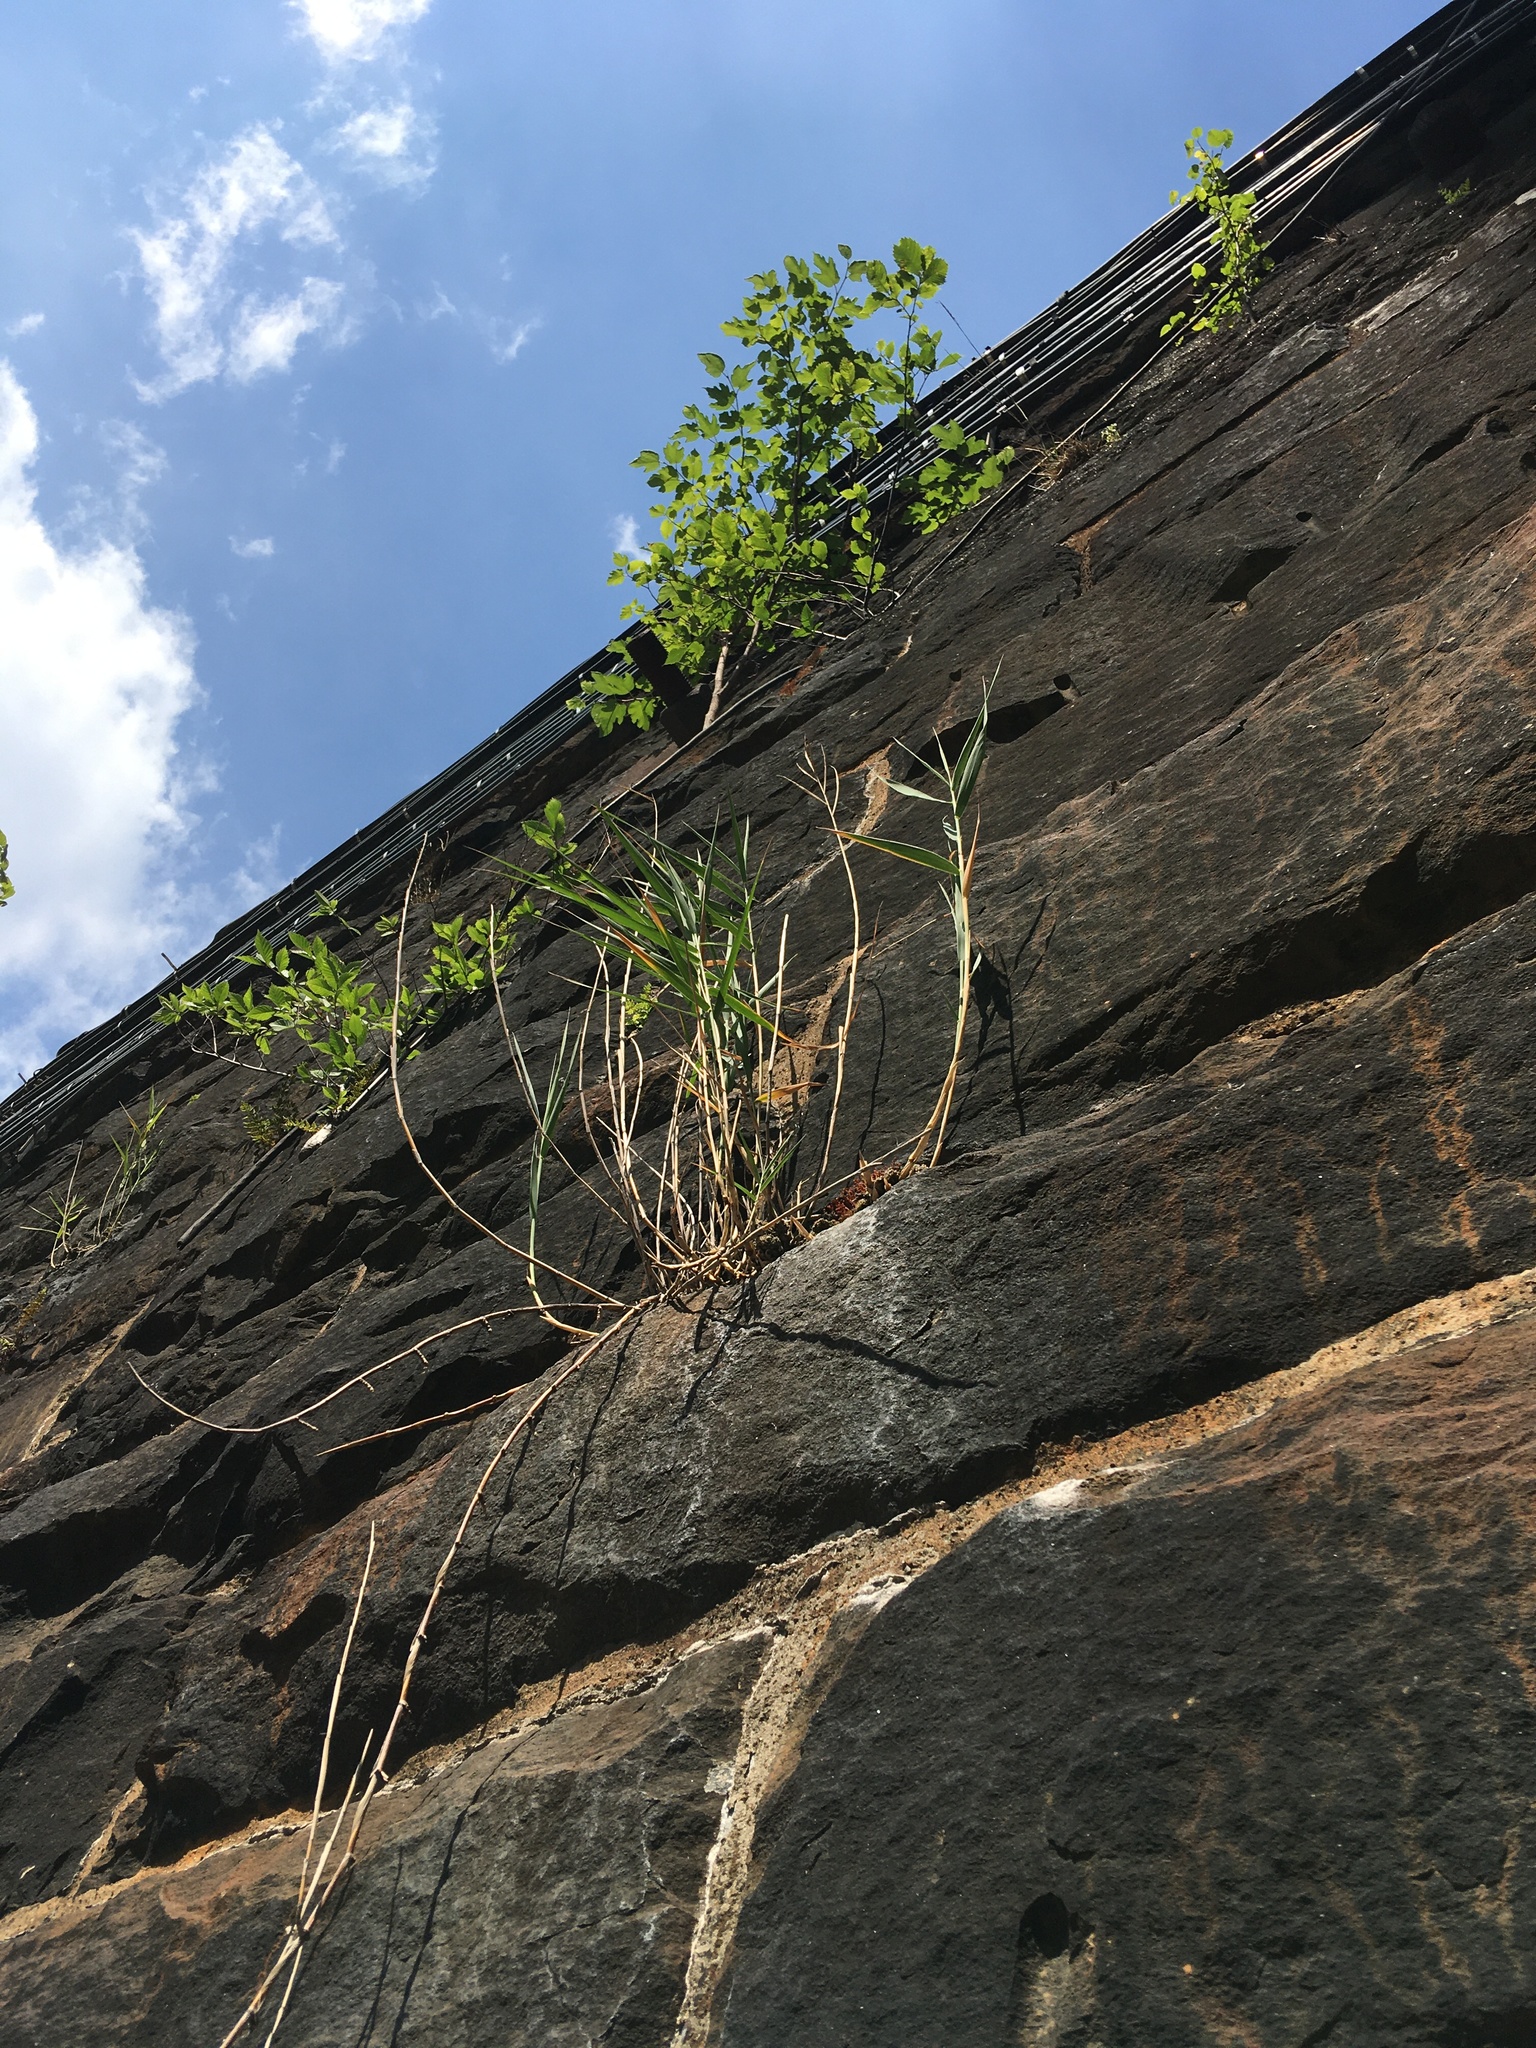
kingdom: Plantae
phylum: Tracheophyta
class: Liliopsida
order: Poales
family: Poaceae
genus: Phragmites
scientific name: Phragmites australis
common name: Common reed
